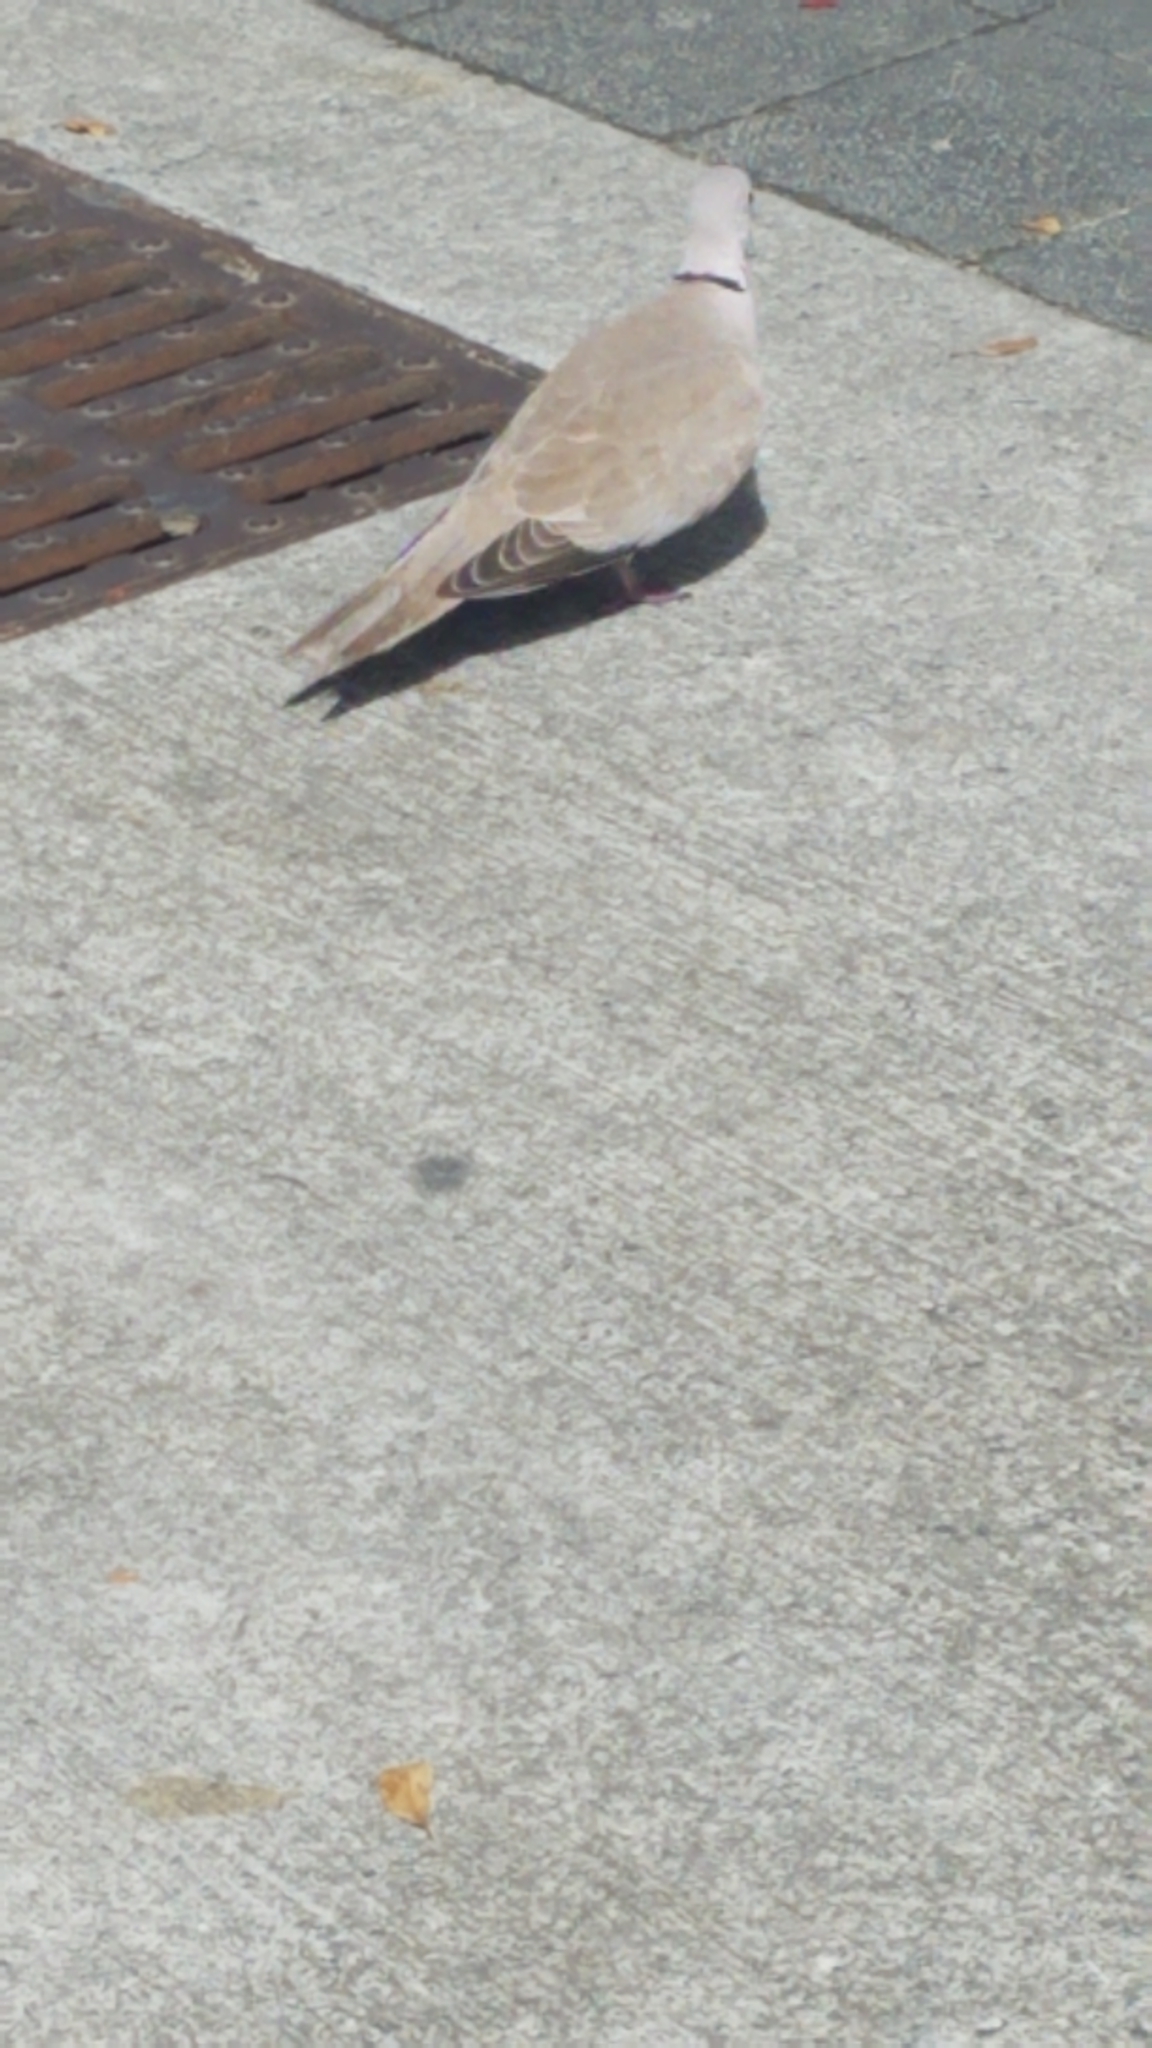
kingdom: Animalia
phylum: Chordata
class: Aves
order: Columbiformes
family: Columbidae
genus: Streptopelia
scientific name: Streptopelia decaocto
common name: Eurasian collared dove
